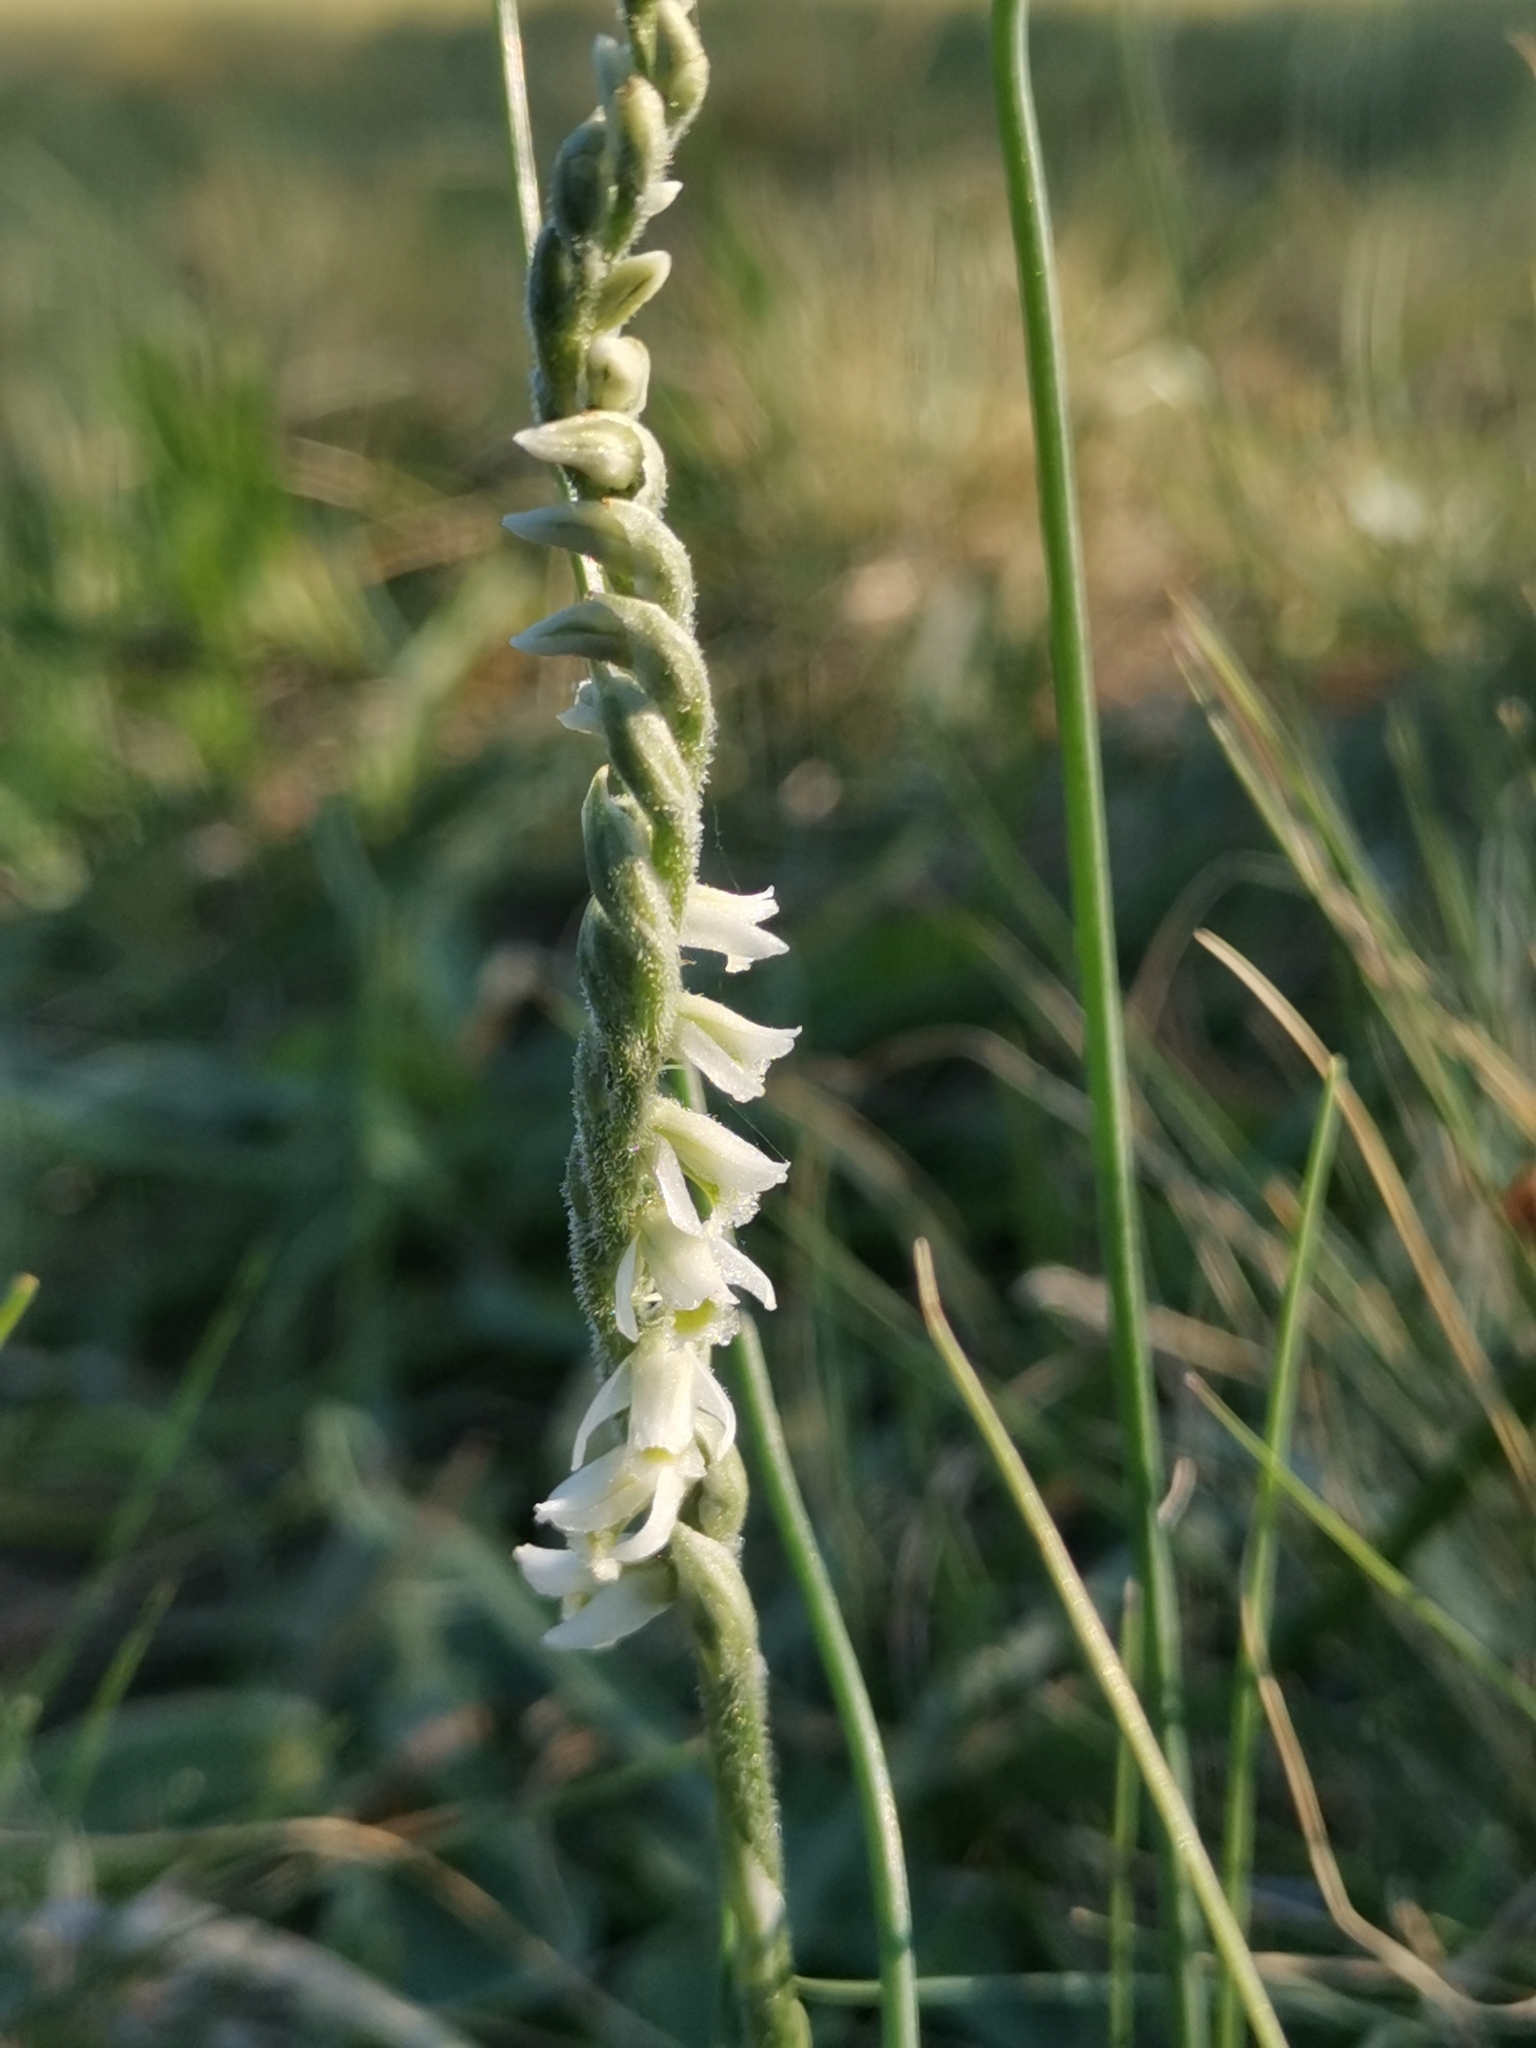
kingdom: Plantae
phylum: Tracheophyta
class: Liliopsida
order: Asparagales
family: Orchidaceae
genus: Spiranthes
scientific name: Spiranthes spiralis
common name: Autumn lady's-tresses
